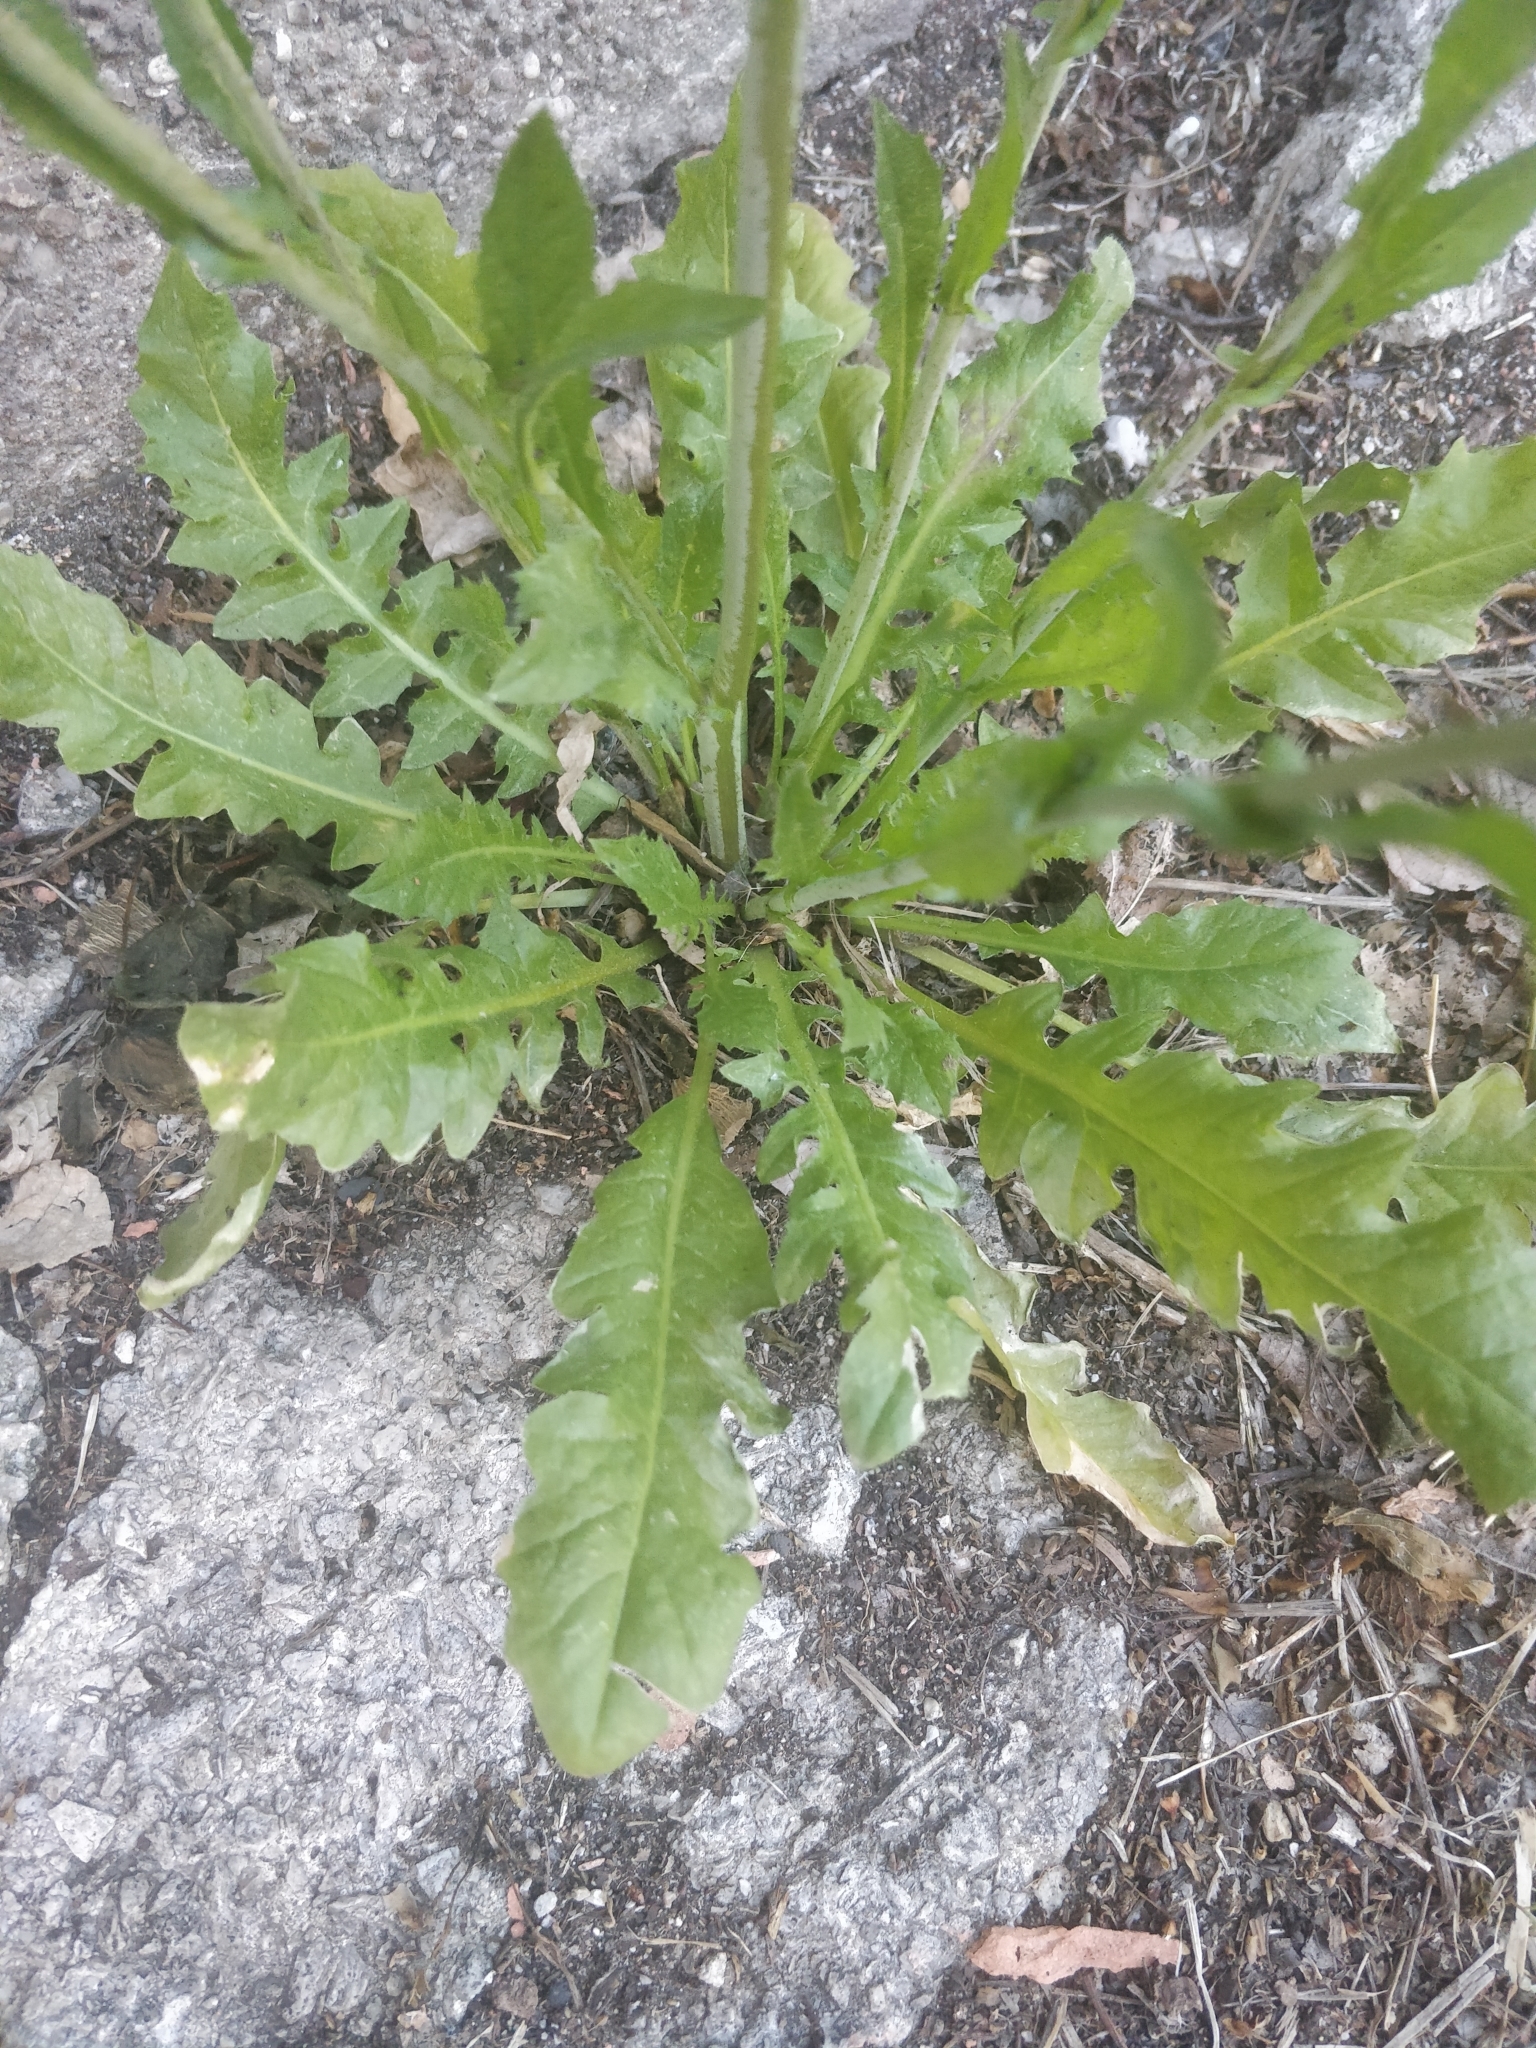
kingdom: Plantae
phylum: Tracheophyta
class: Magnoliopsida
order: Brassicales
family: Brassicaceae
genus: Capsella
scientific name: Capsella bursa-pastoris
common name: Shepherd's purse
